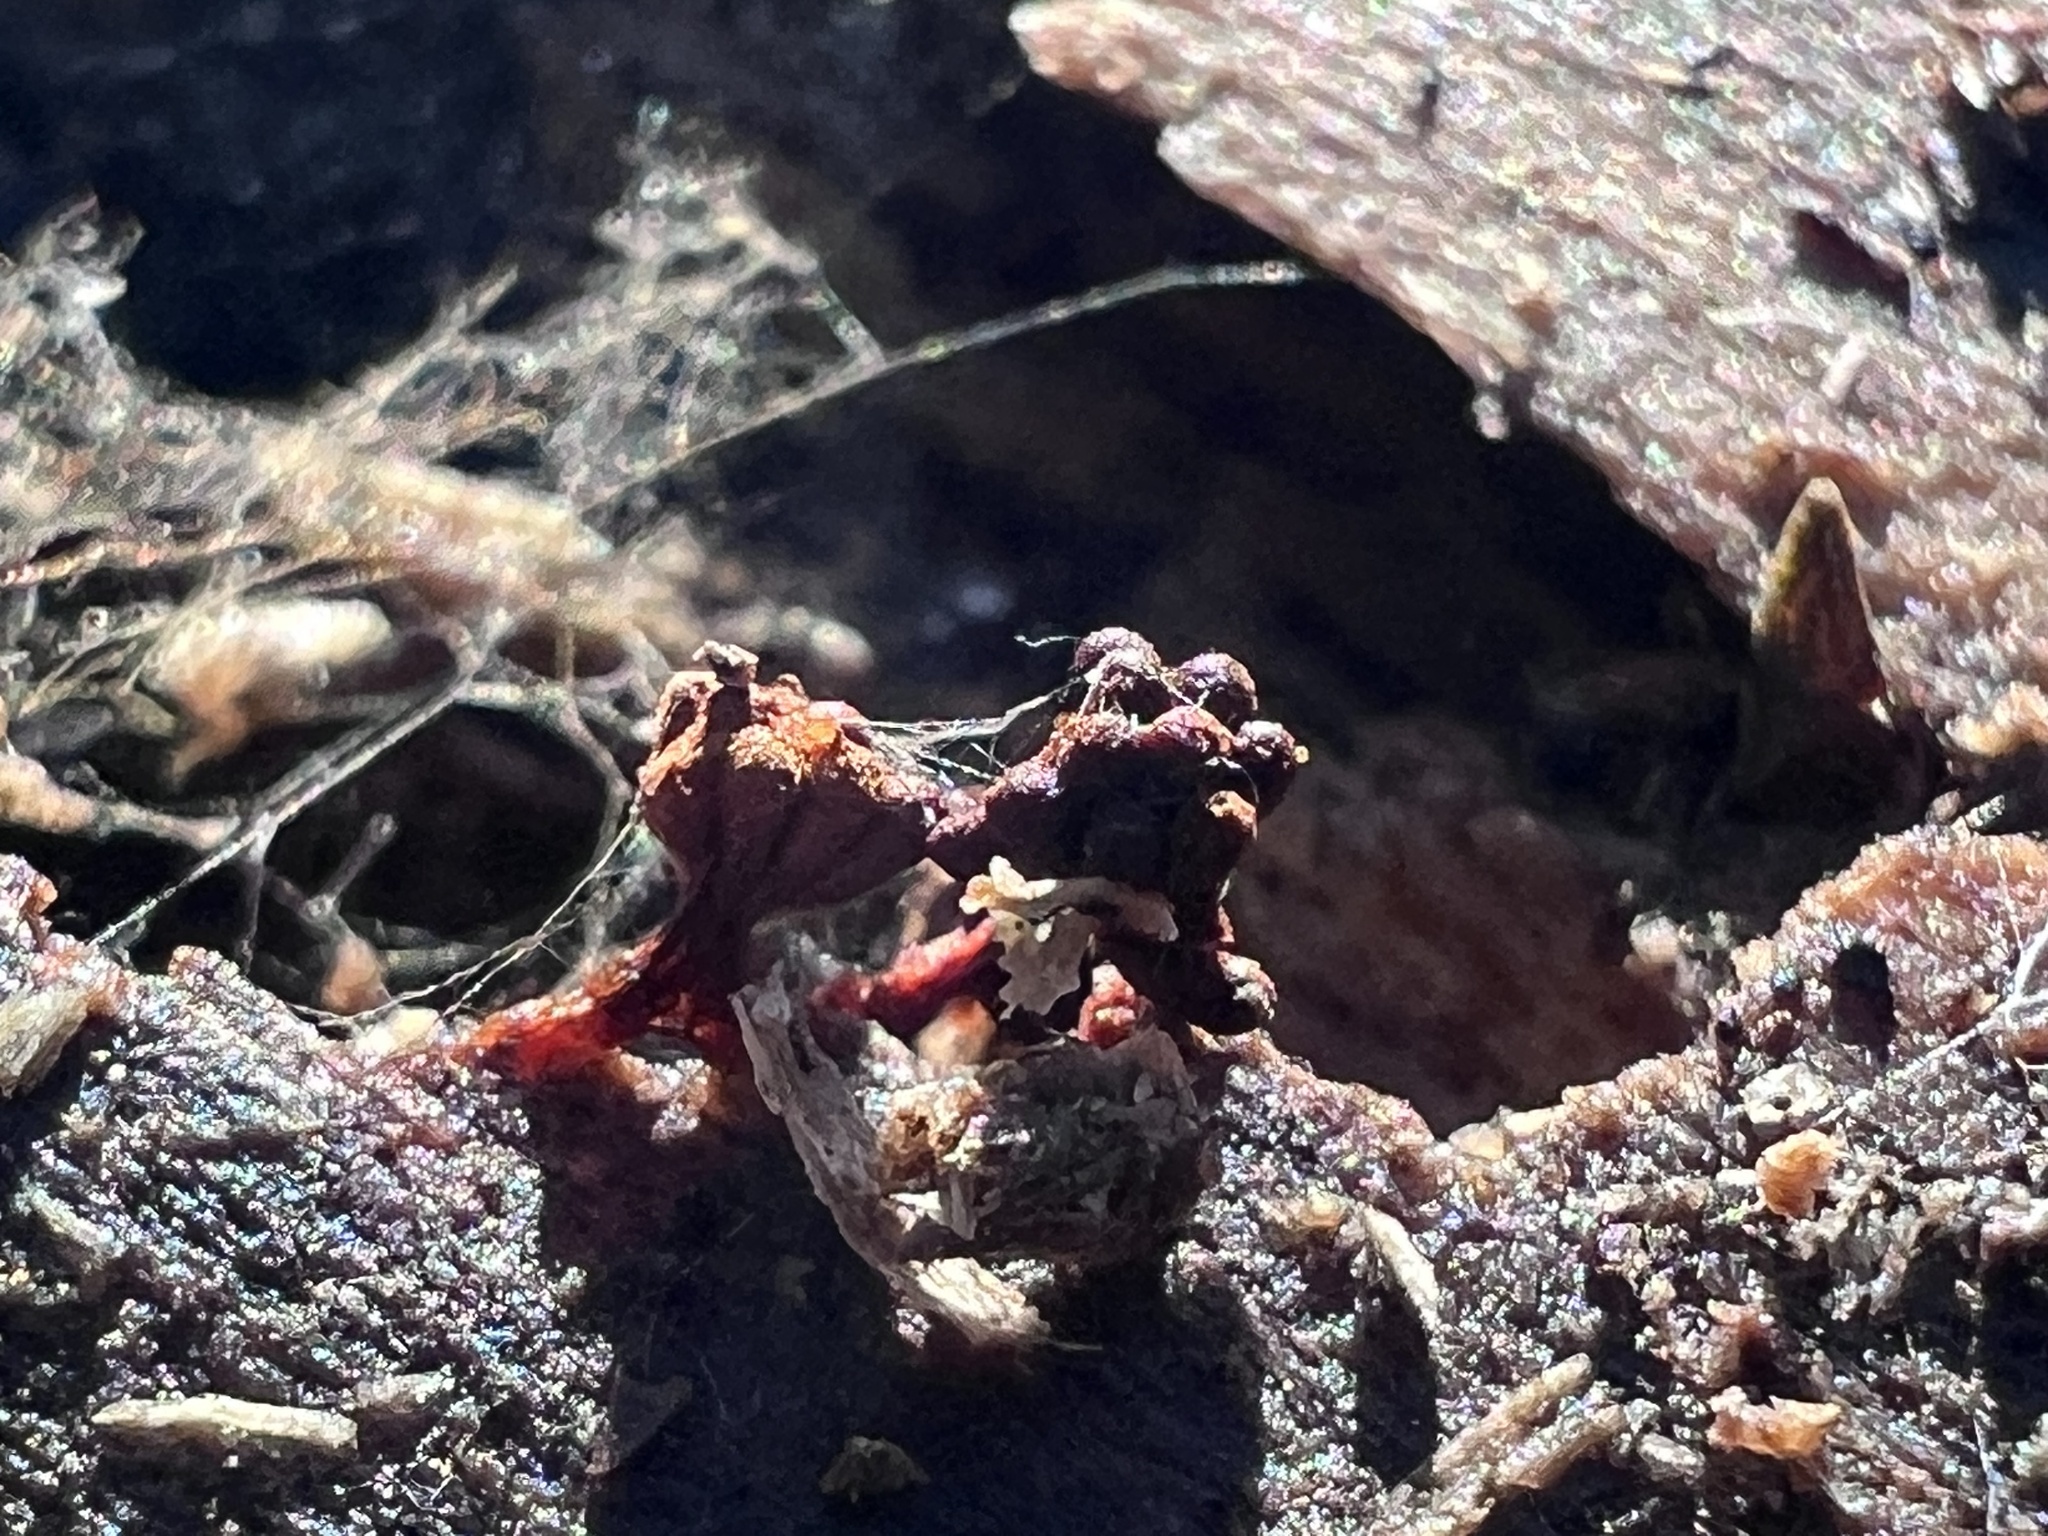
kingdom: Protozoa
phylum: Mycetozoa
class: Myxomycetes
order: Trichiales
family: Trichiaceae
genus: Metatrichia
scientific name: Metatrichia vesparia
